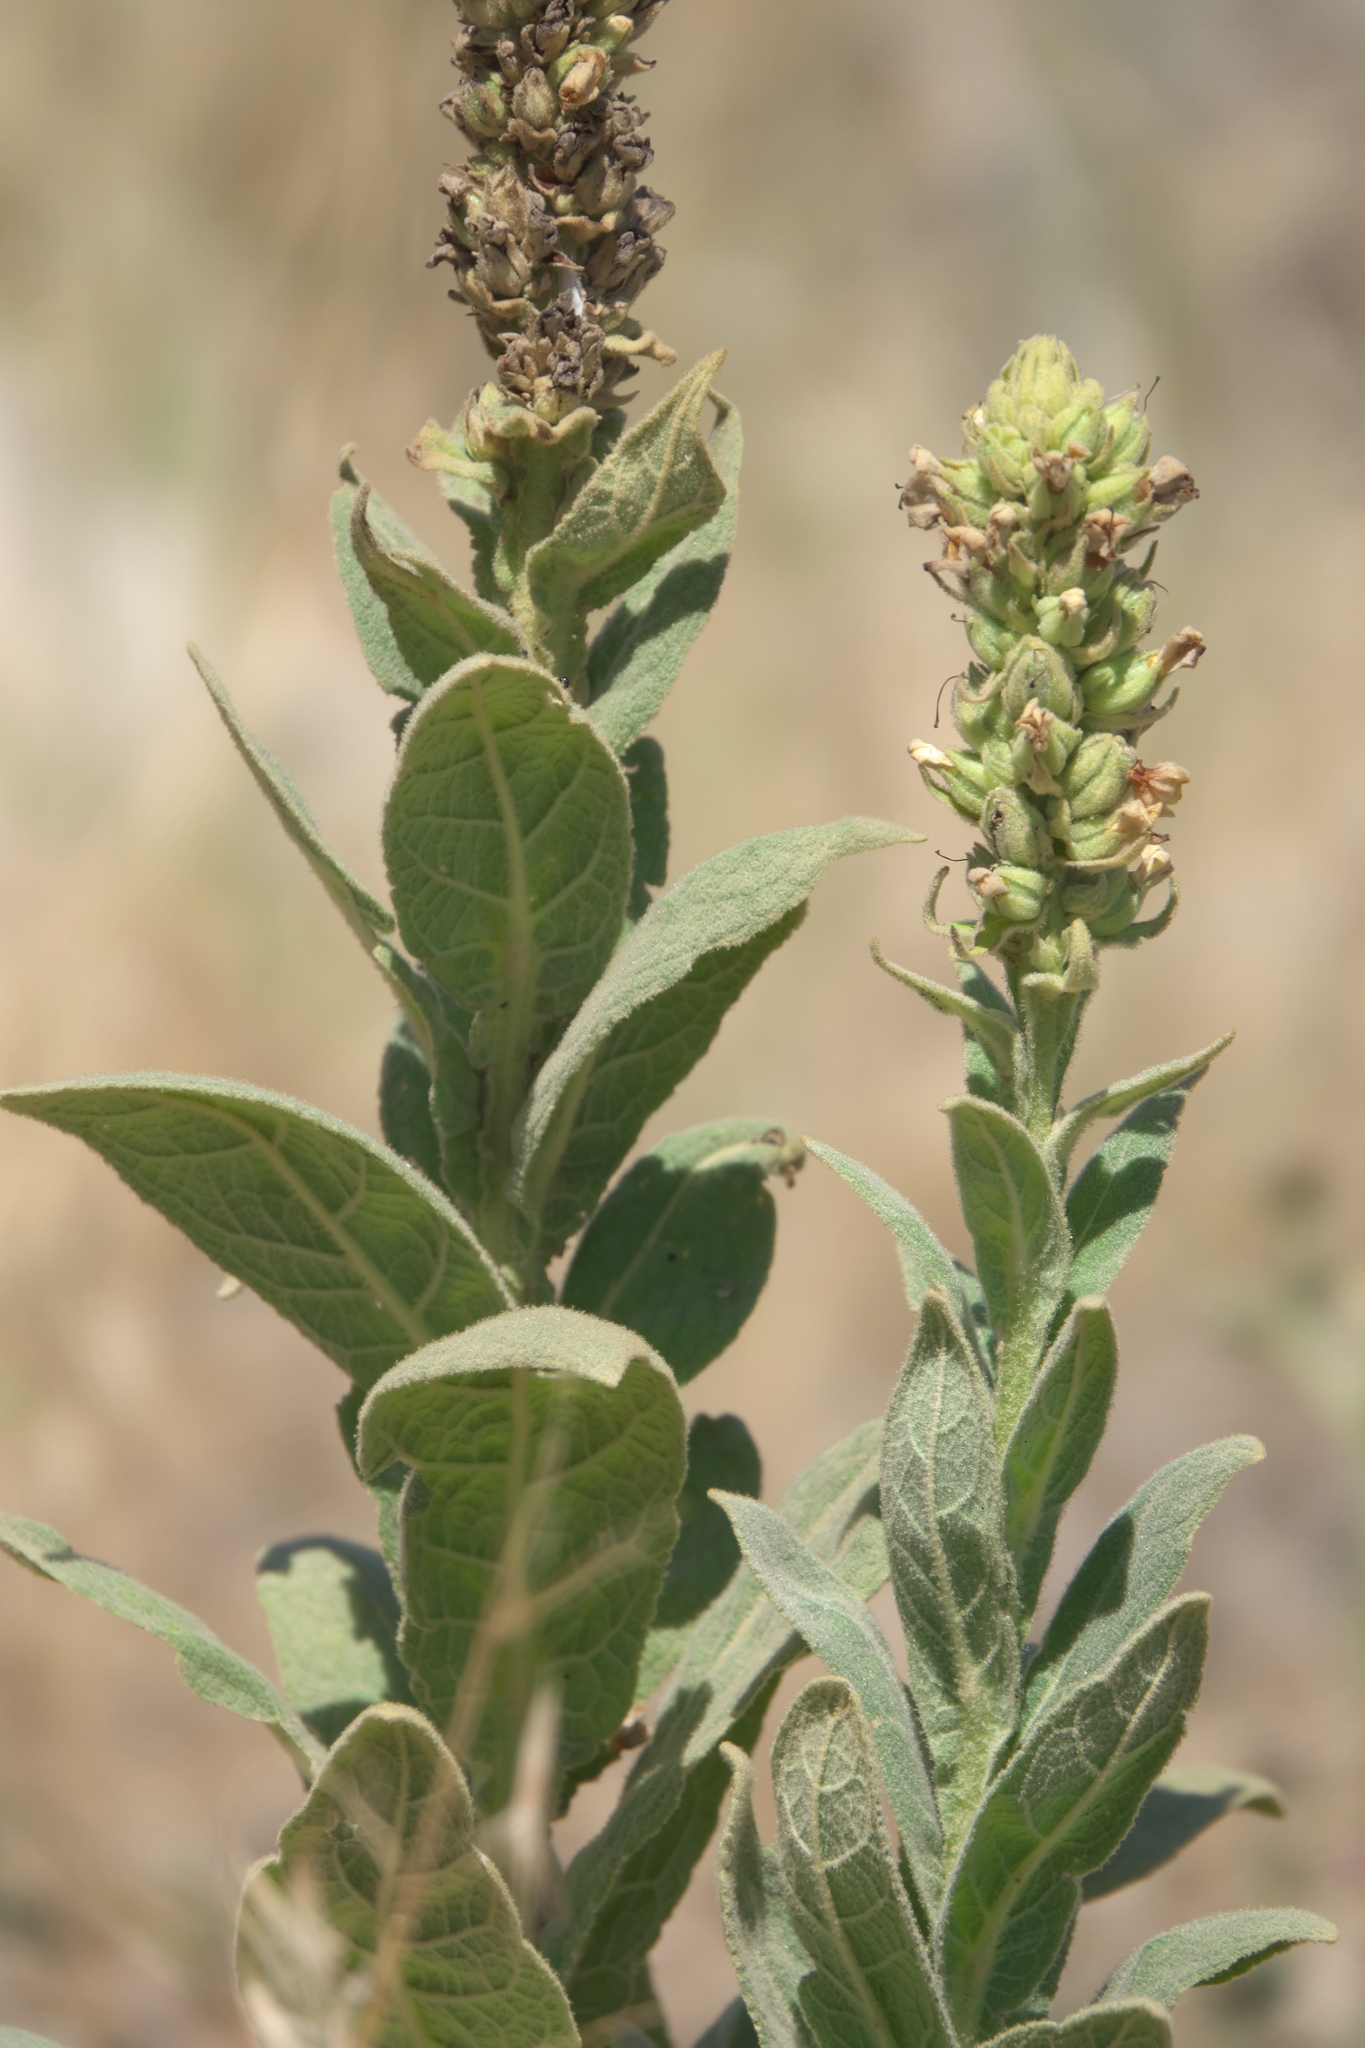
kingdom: Plantae
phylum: Tracheophyta
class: Magnoliopsida
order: Lamiales
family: Scrophulariaceae
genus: Verbascum
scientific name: Verbascum thapsus
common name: Common mullein
